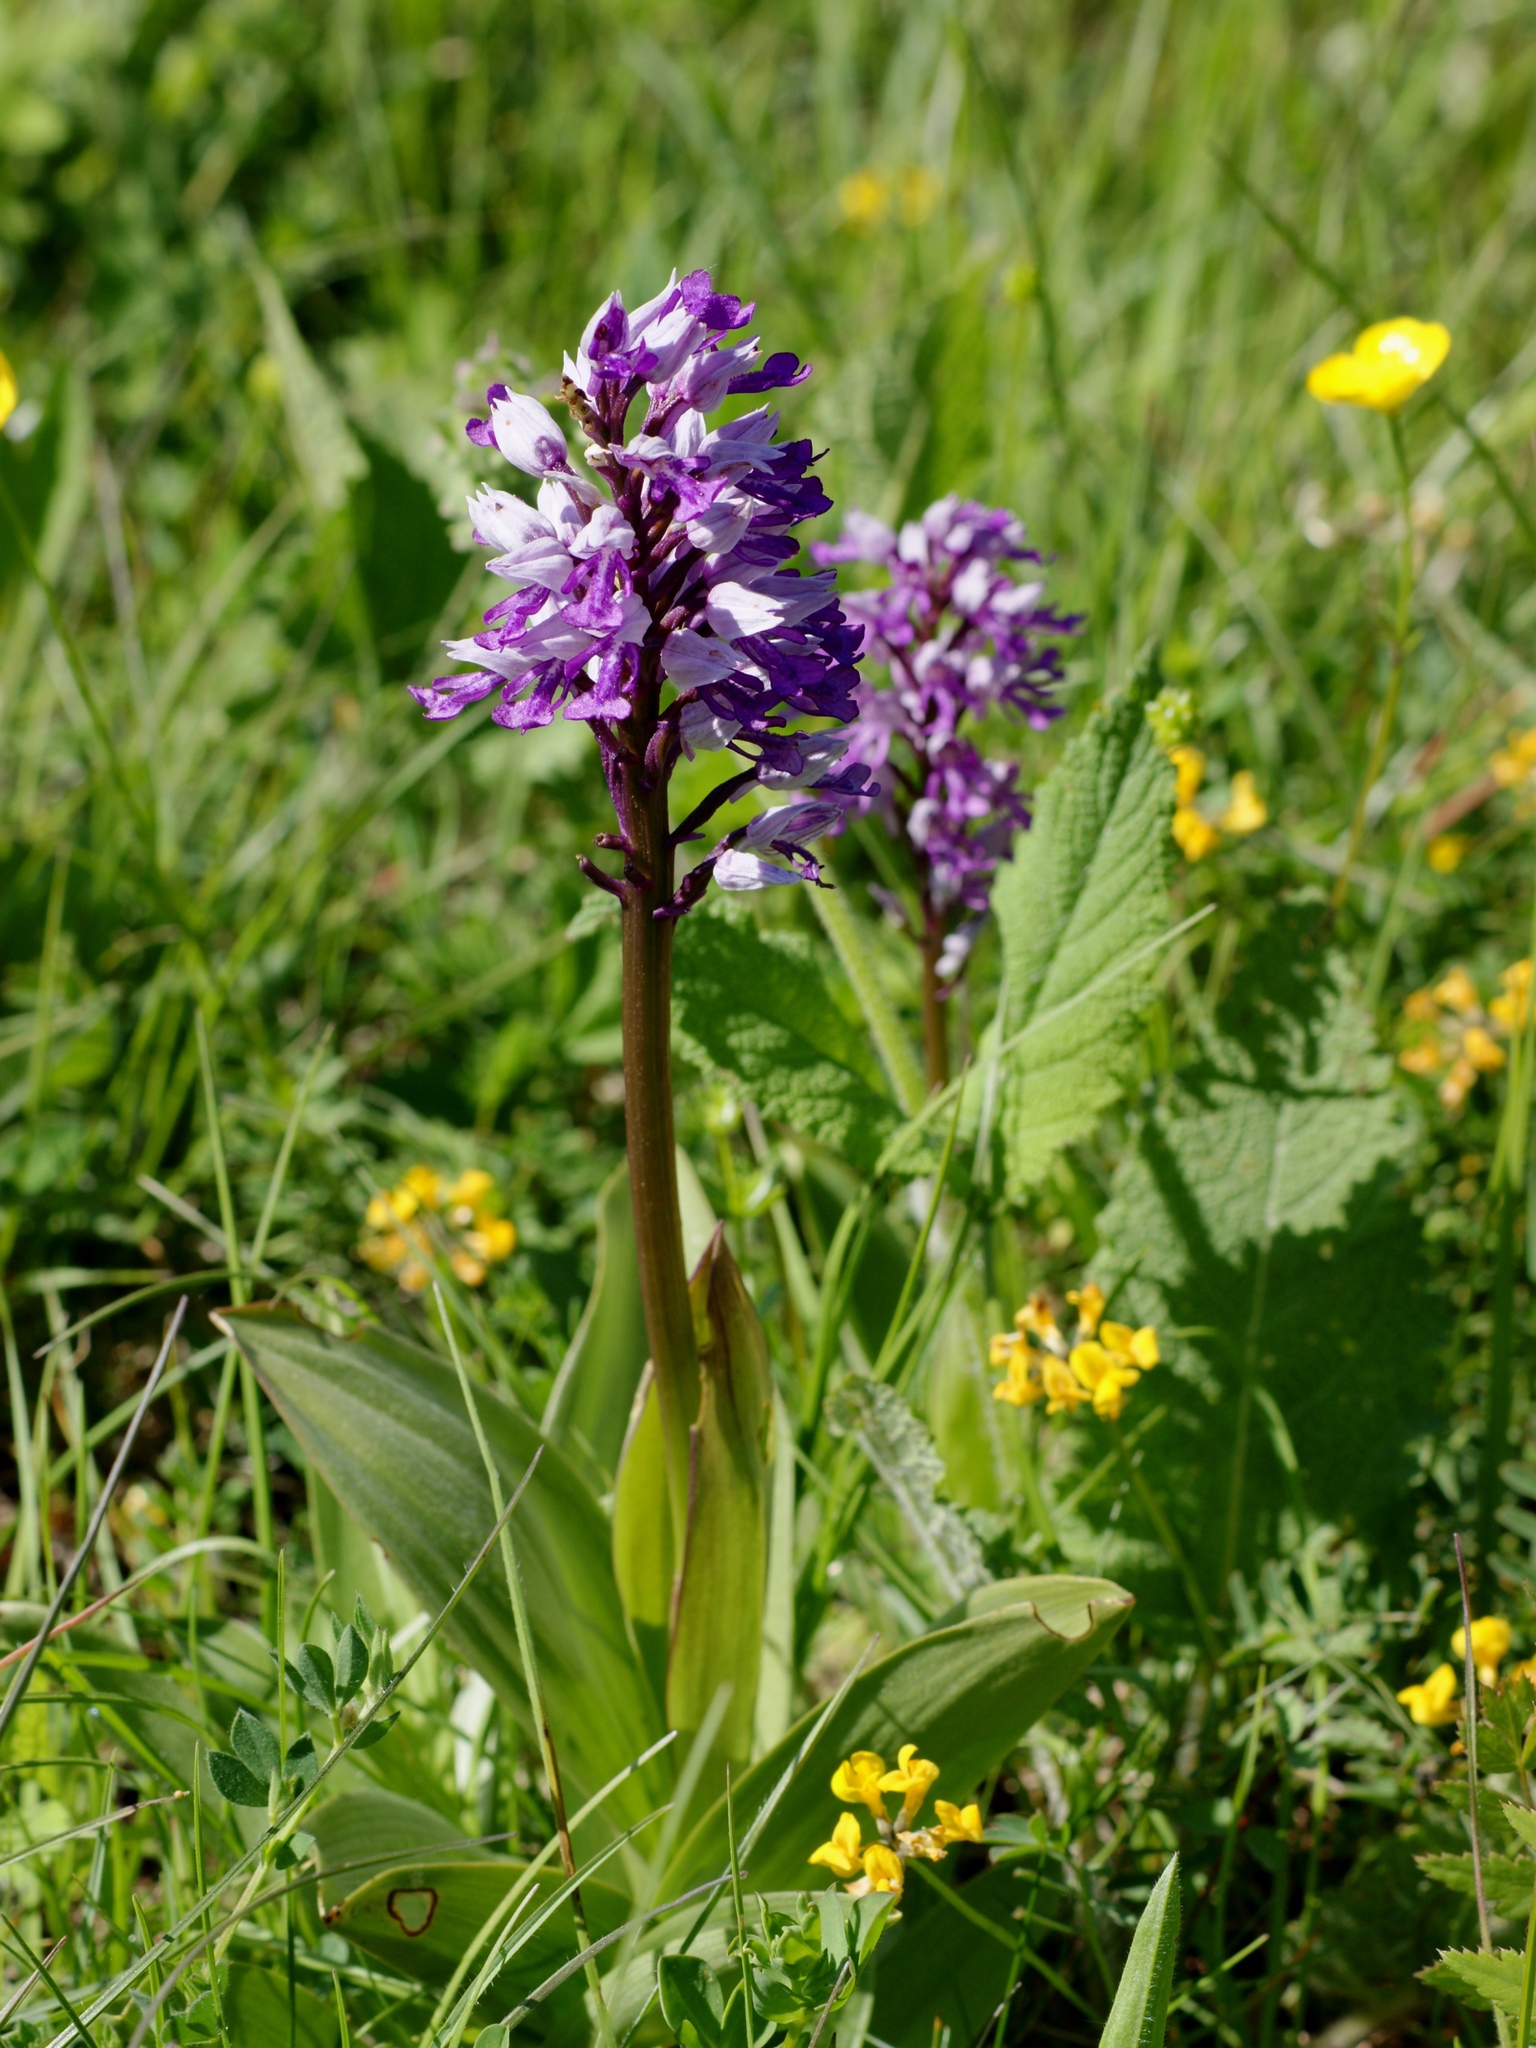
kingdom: Plantae
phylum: Tracheophyta
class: Liliopsida
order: Asparagales
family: Orchidaceae
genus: Orchis
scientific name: Orchis militaris
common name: Military orchid
